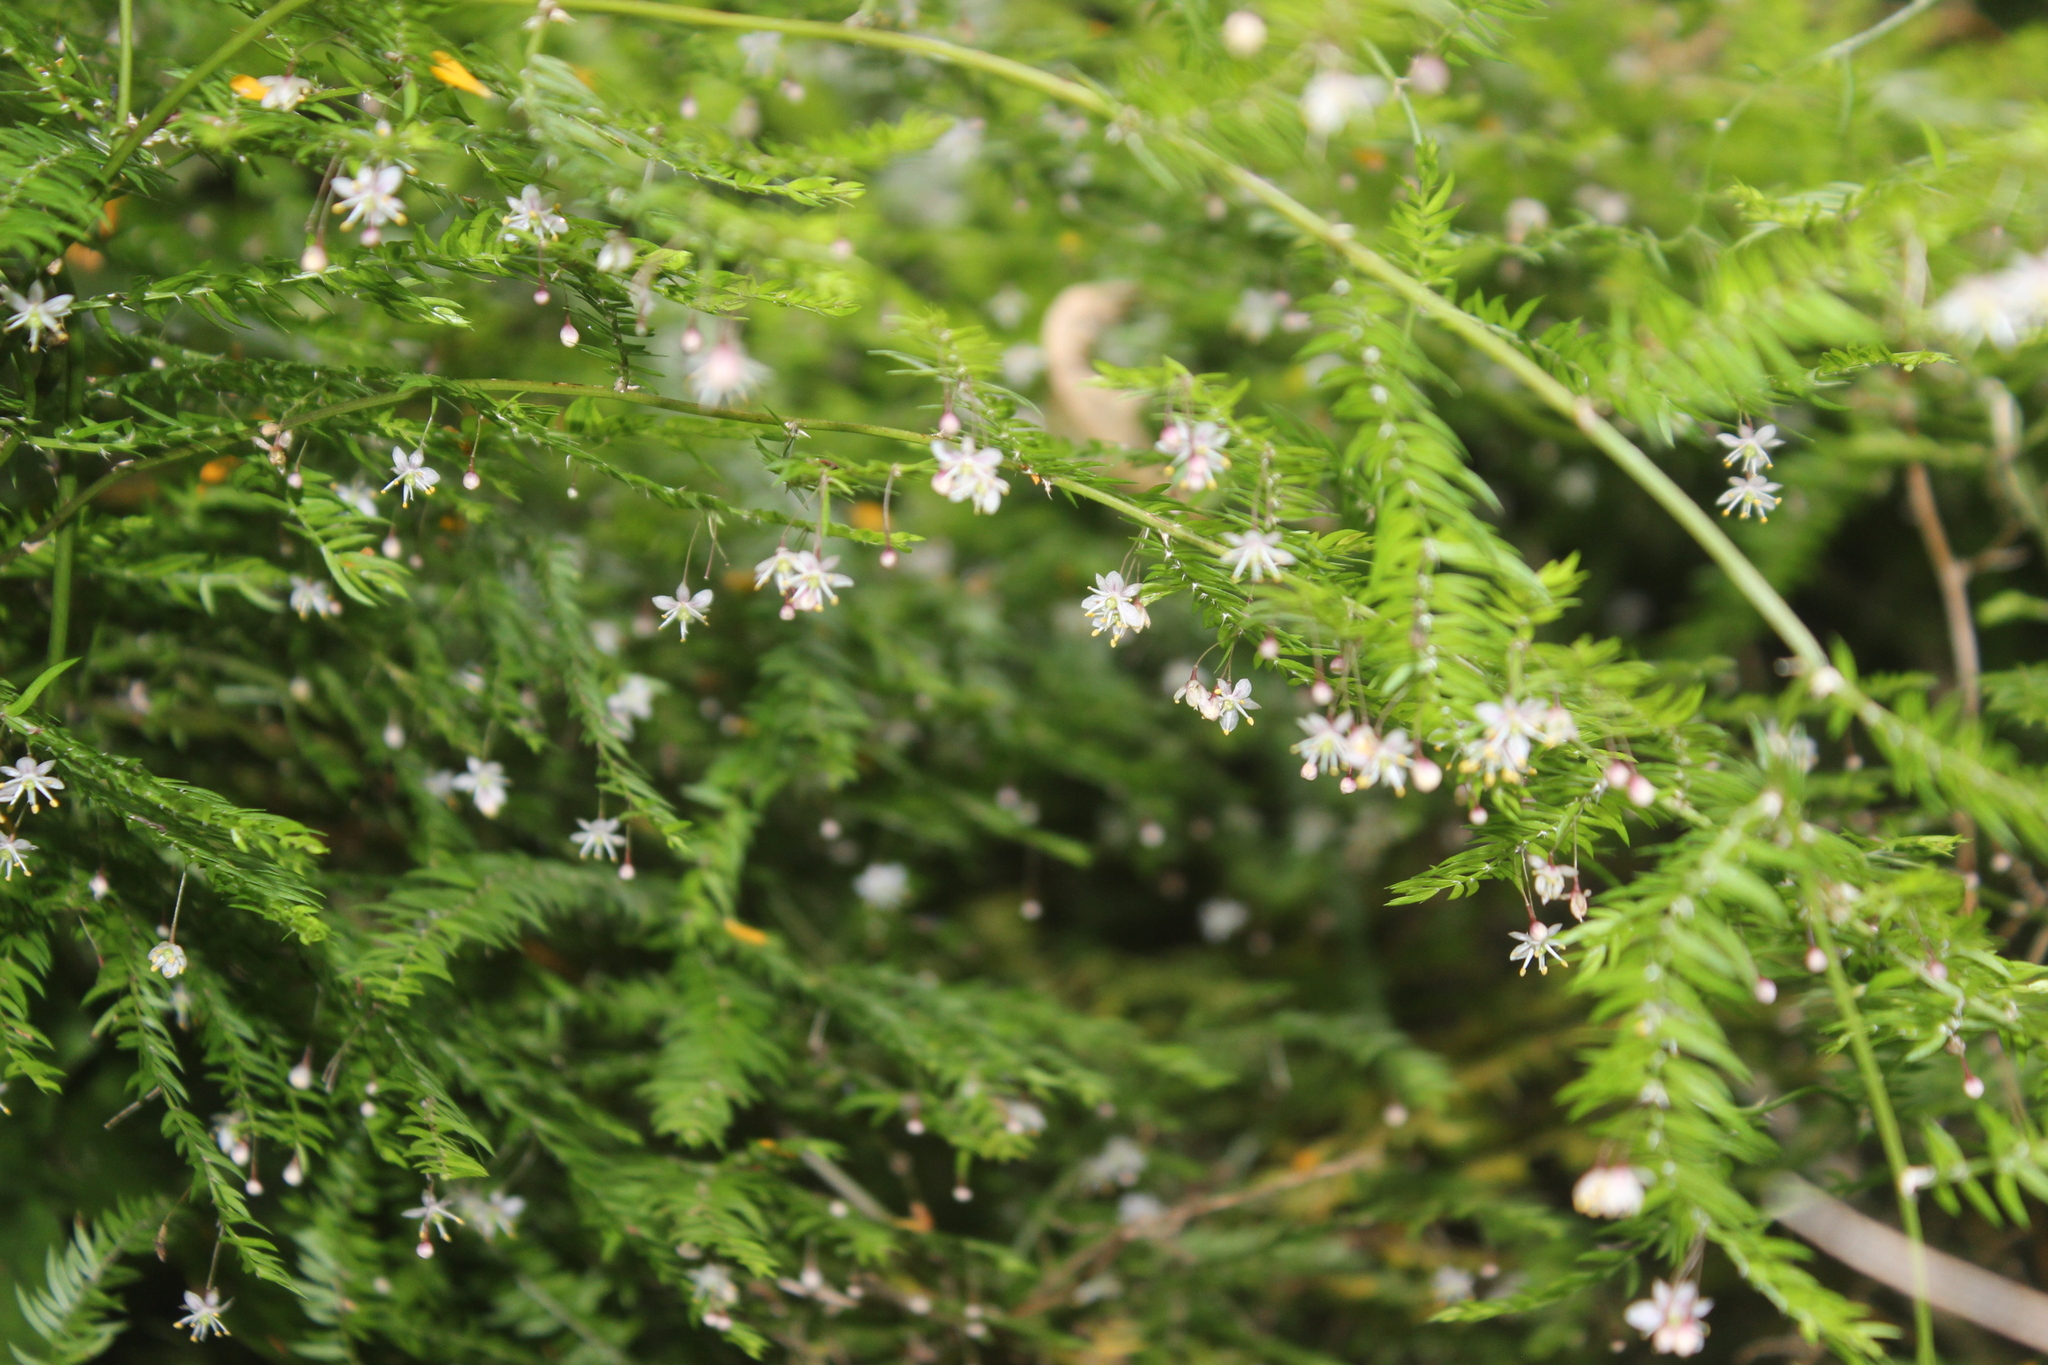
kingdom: Plantae
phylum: Tracheophyta
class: Liliopsida
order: Asparagales
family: Asparagaceae
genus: Asparagus
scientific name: Asparagus scandens
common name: Asparagus-fern
